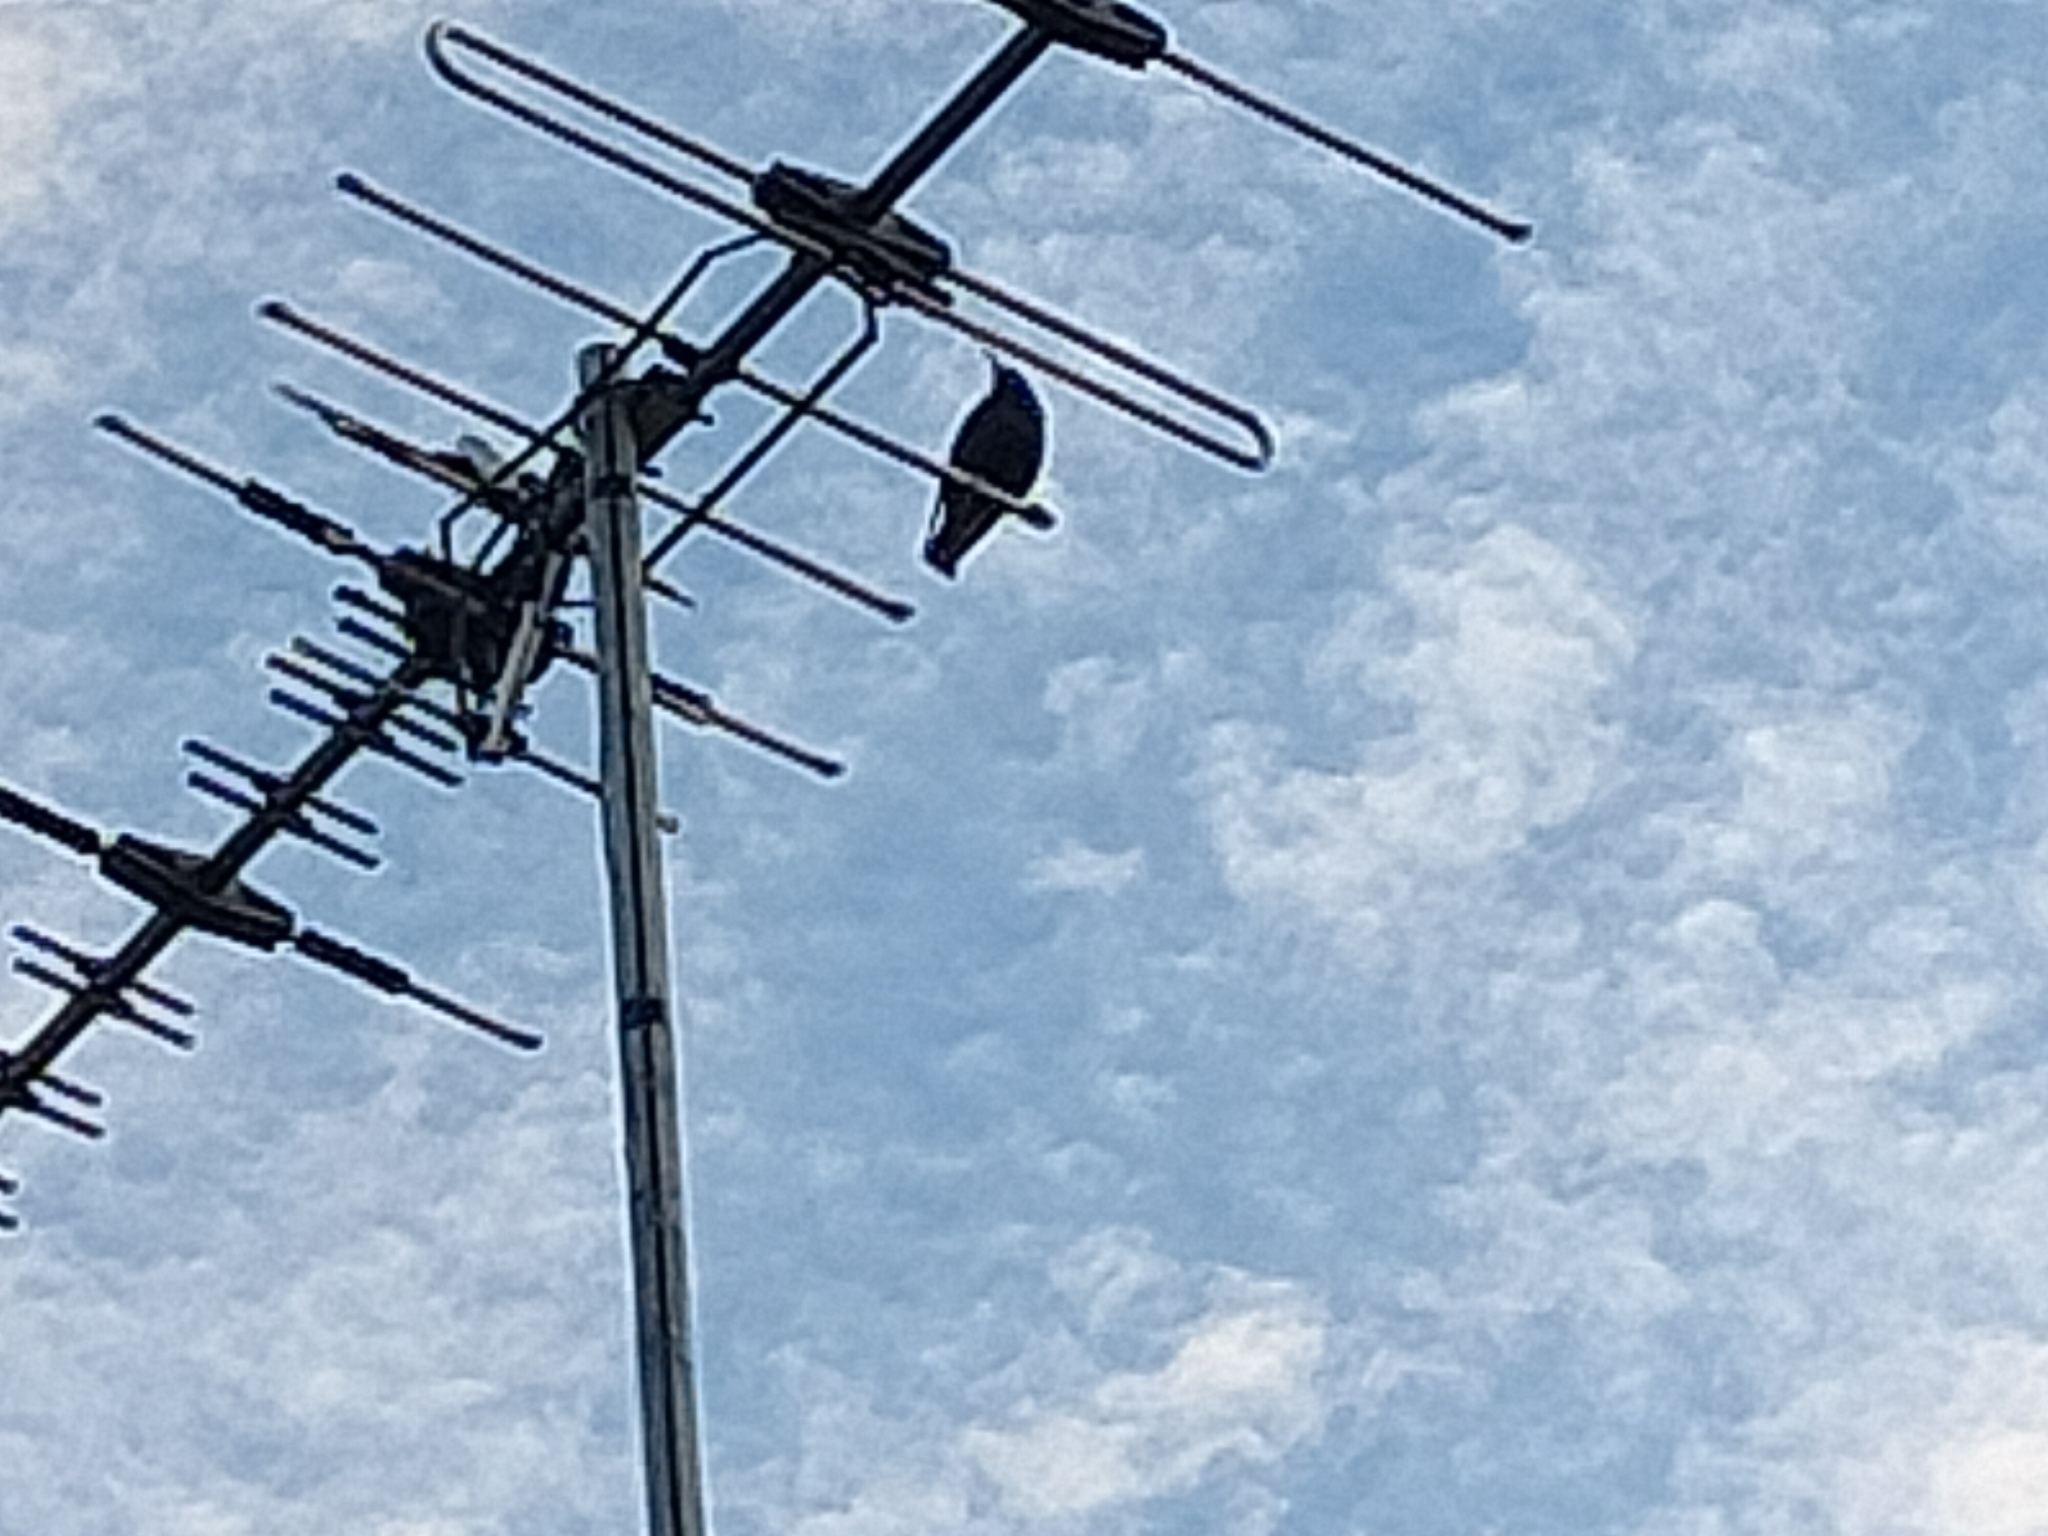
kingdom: Animalia
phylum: Chordata
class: Aves
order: Passeriformes
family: Sturnidae
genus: Sturnus
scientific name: Sturnus vulgaris
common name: Common starling
